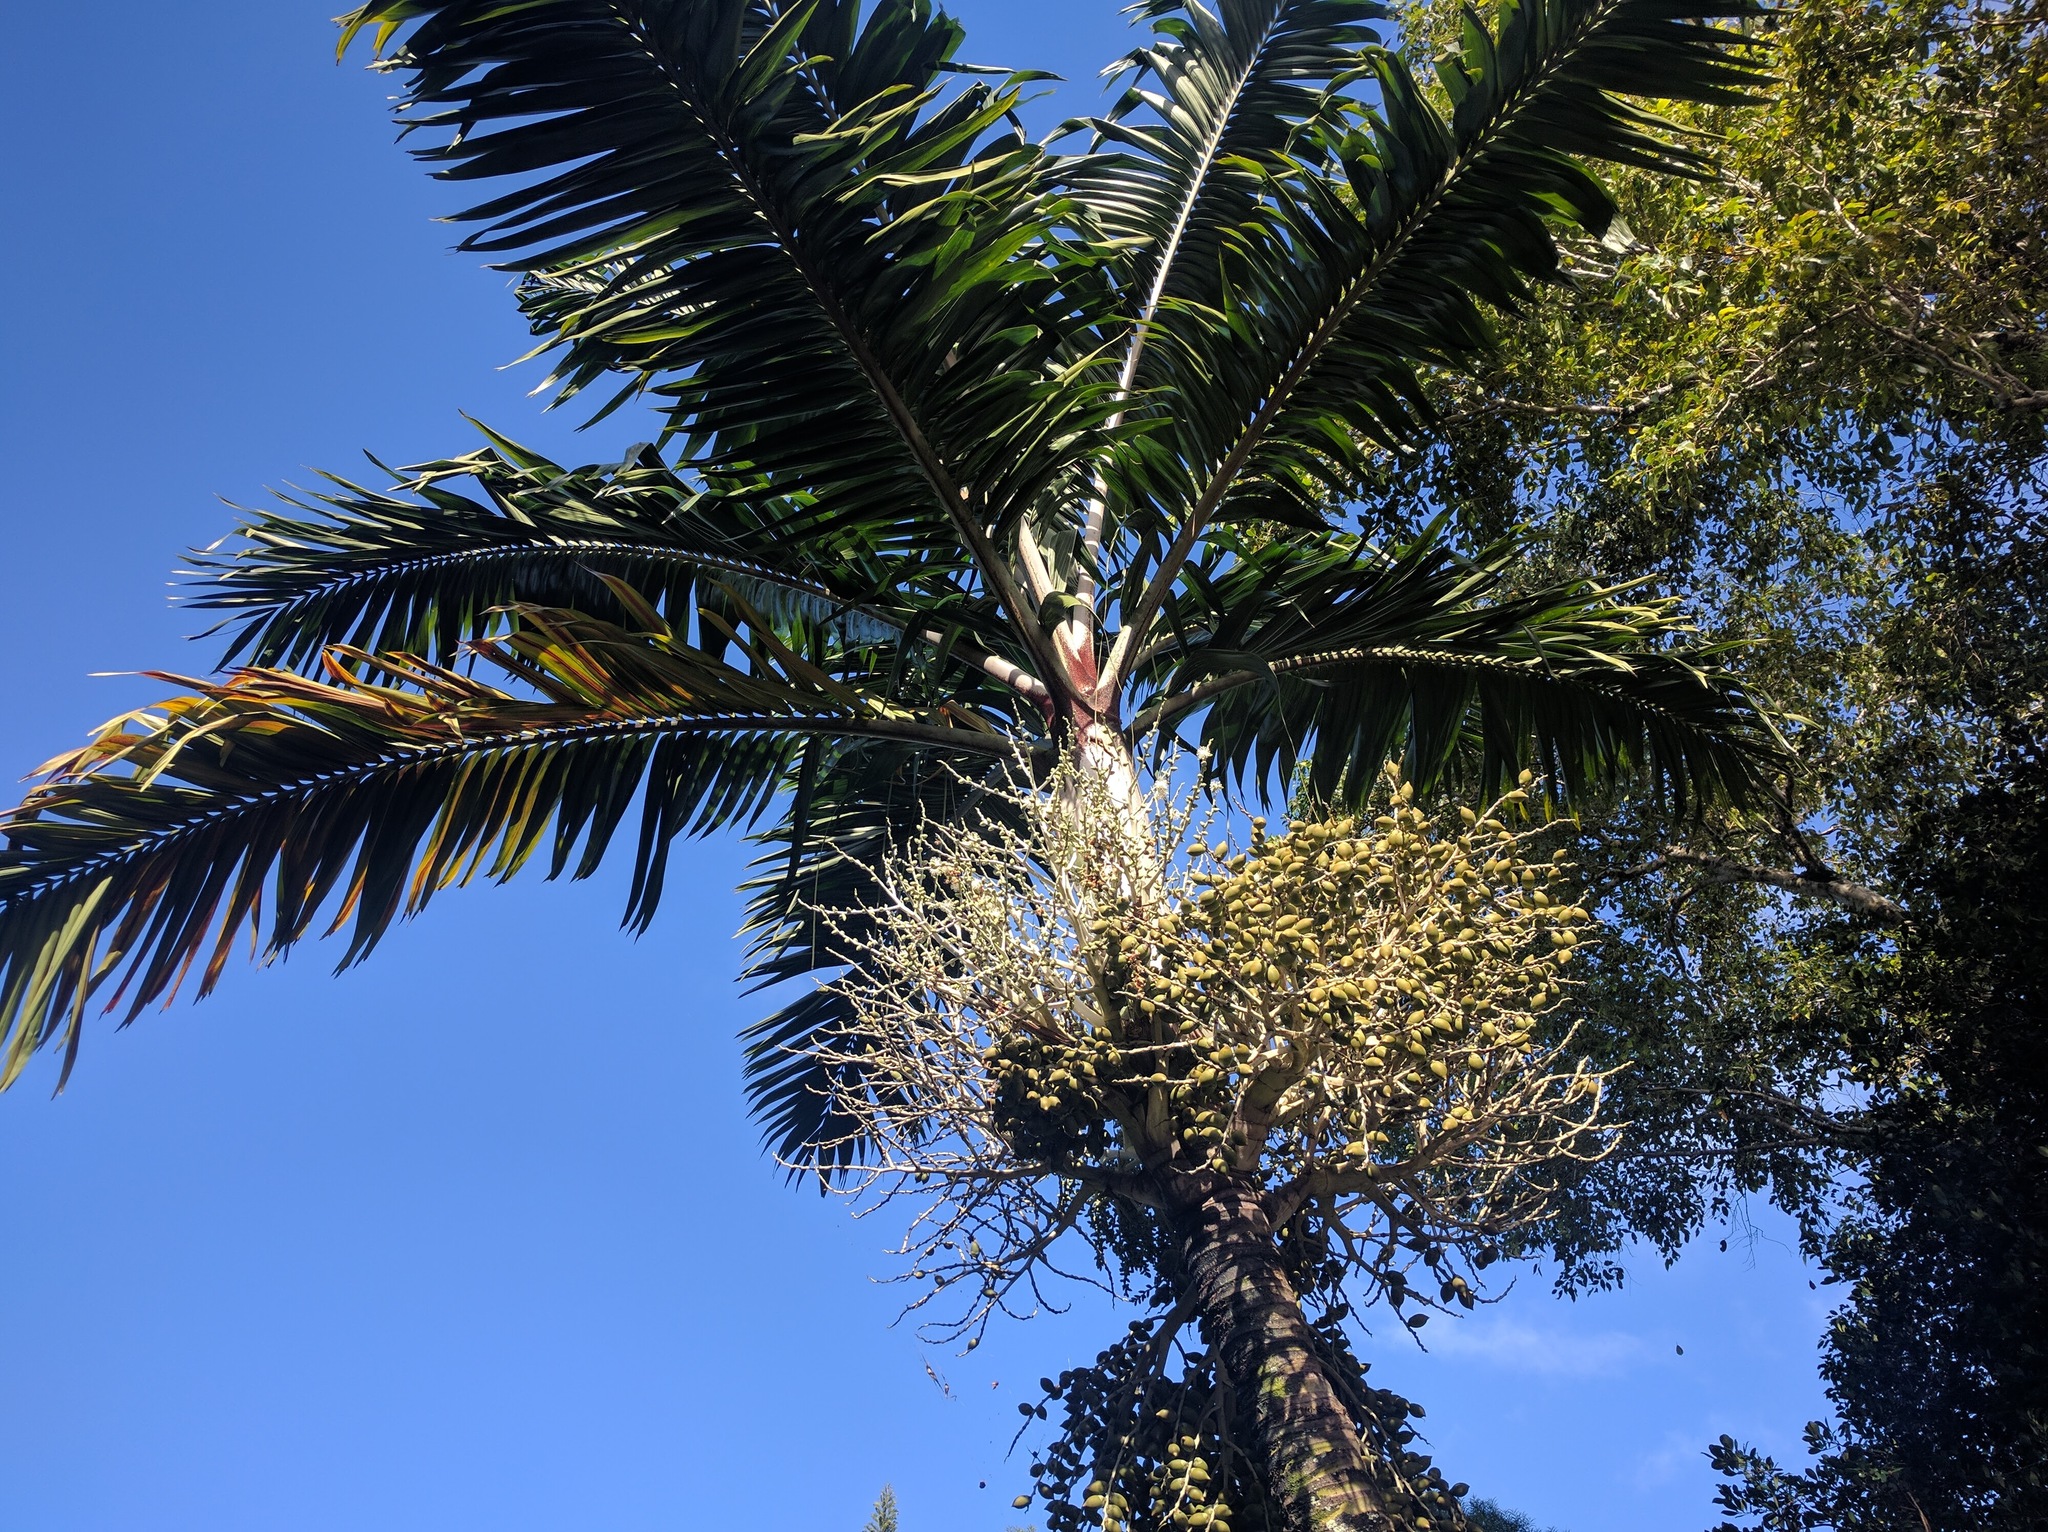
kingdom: Plantae
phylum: Tracheophyta
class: Liliopsida
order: Arecales
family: Arecaceae
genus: Veitchia
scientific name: Veitchia arecina
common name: Montgomery palm
